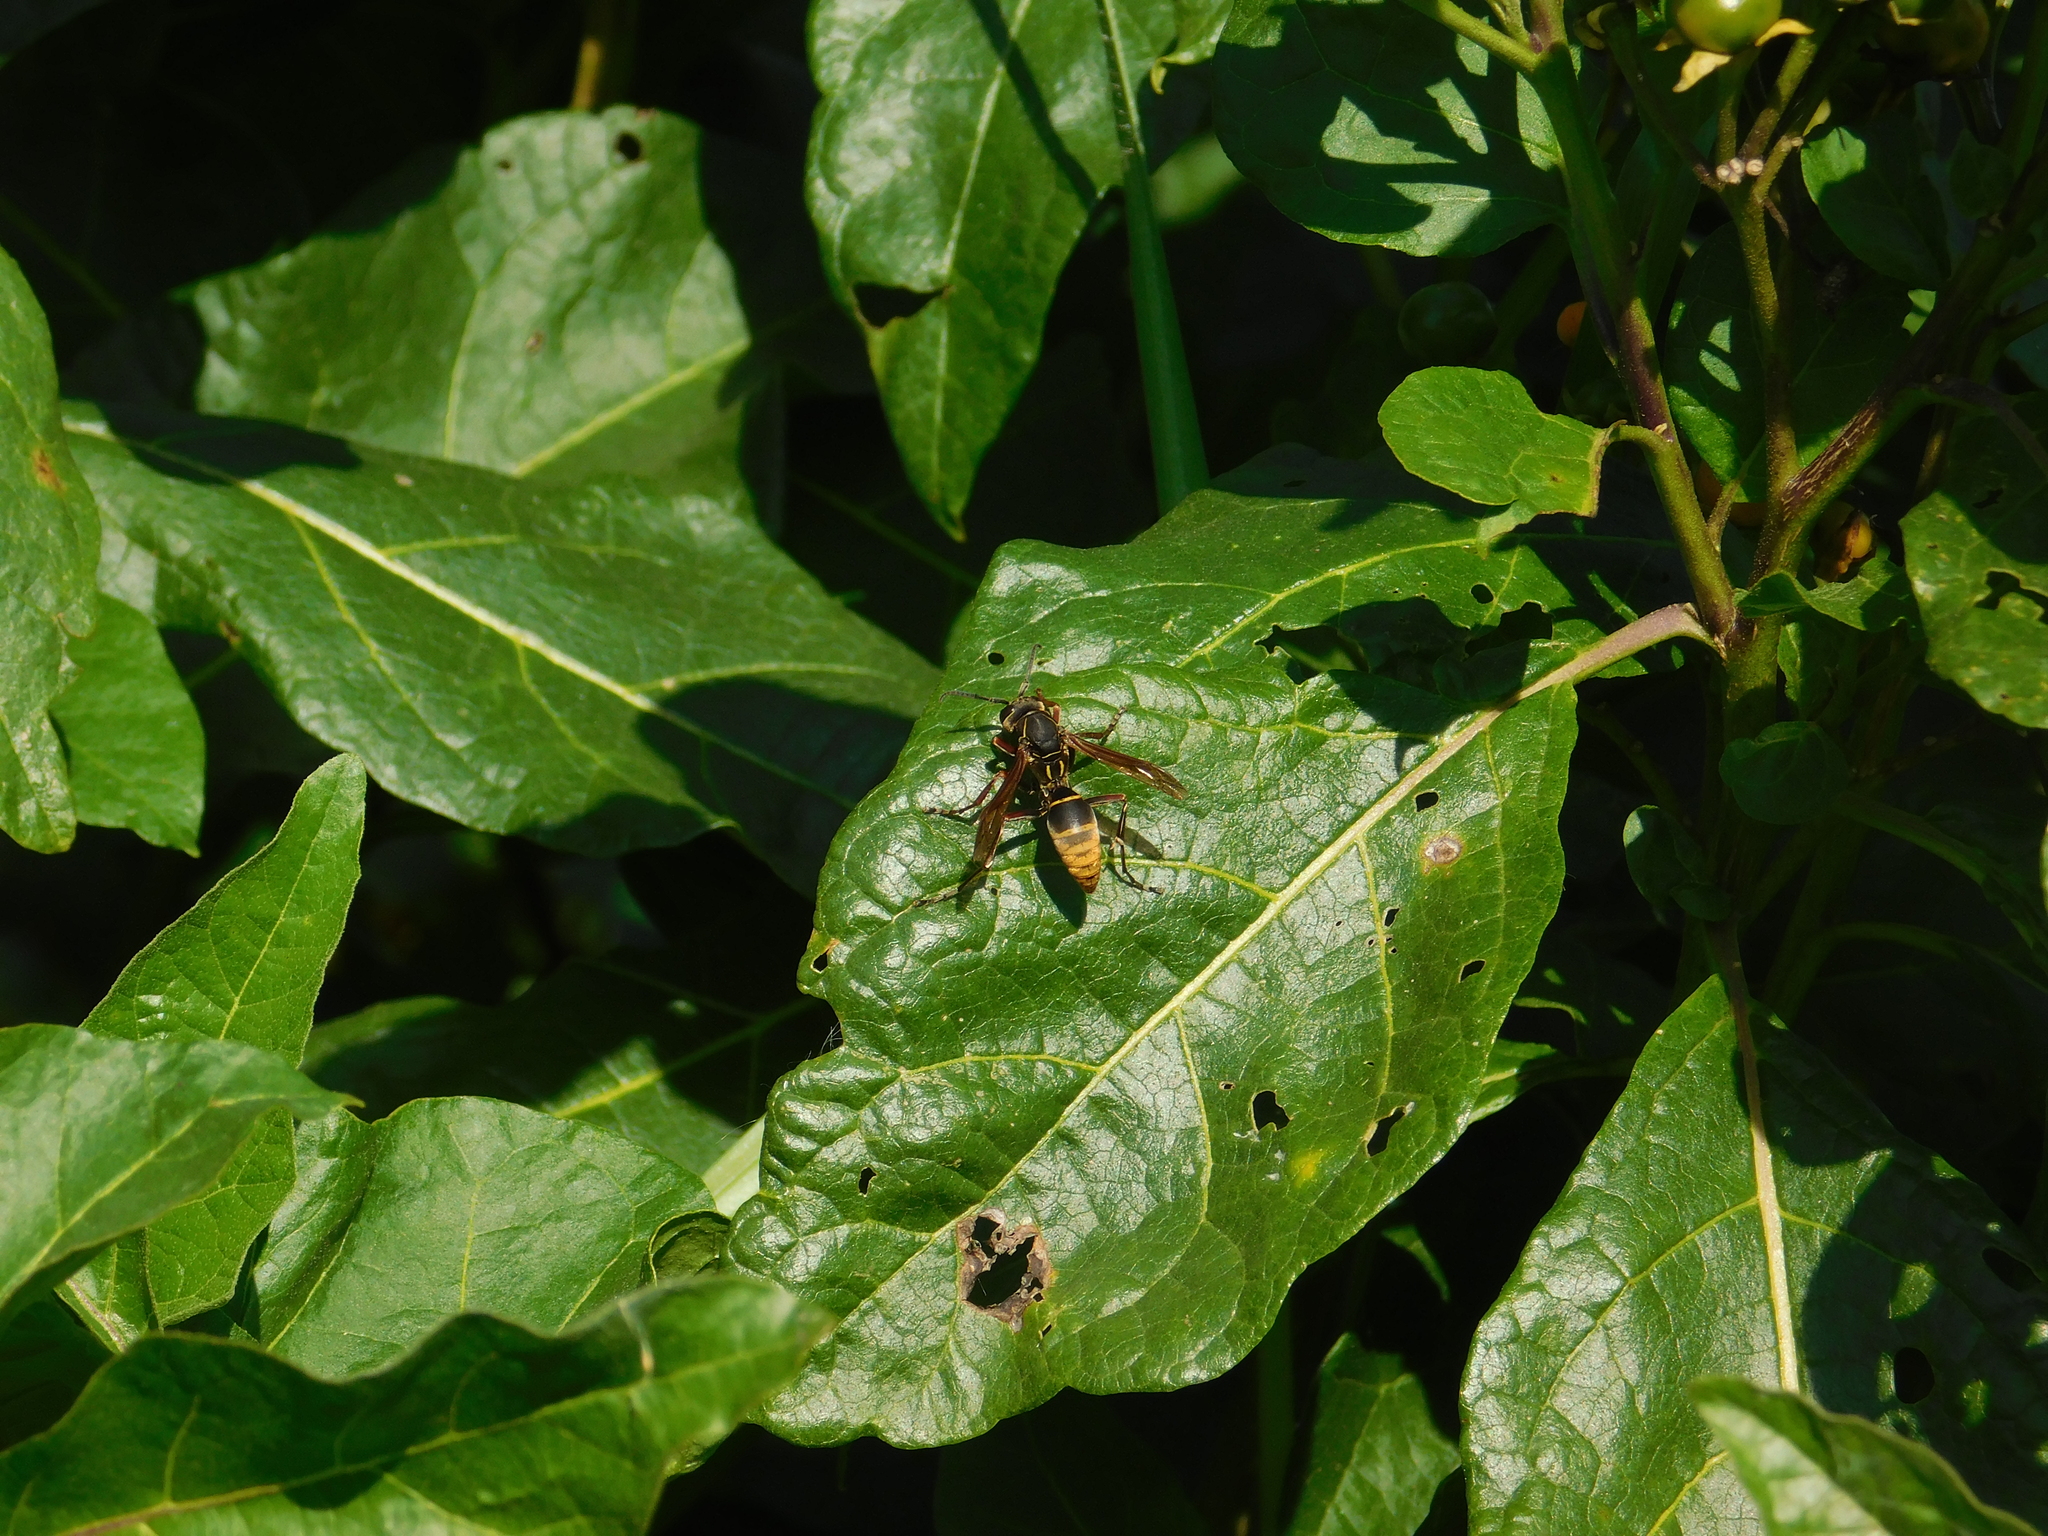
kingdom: Animalia
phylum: Arthropoda
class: Insecta
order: Hymenoptera
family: Eumenidae
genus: Polistes
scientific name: Polistes cinerascens
